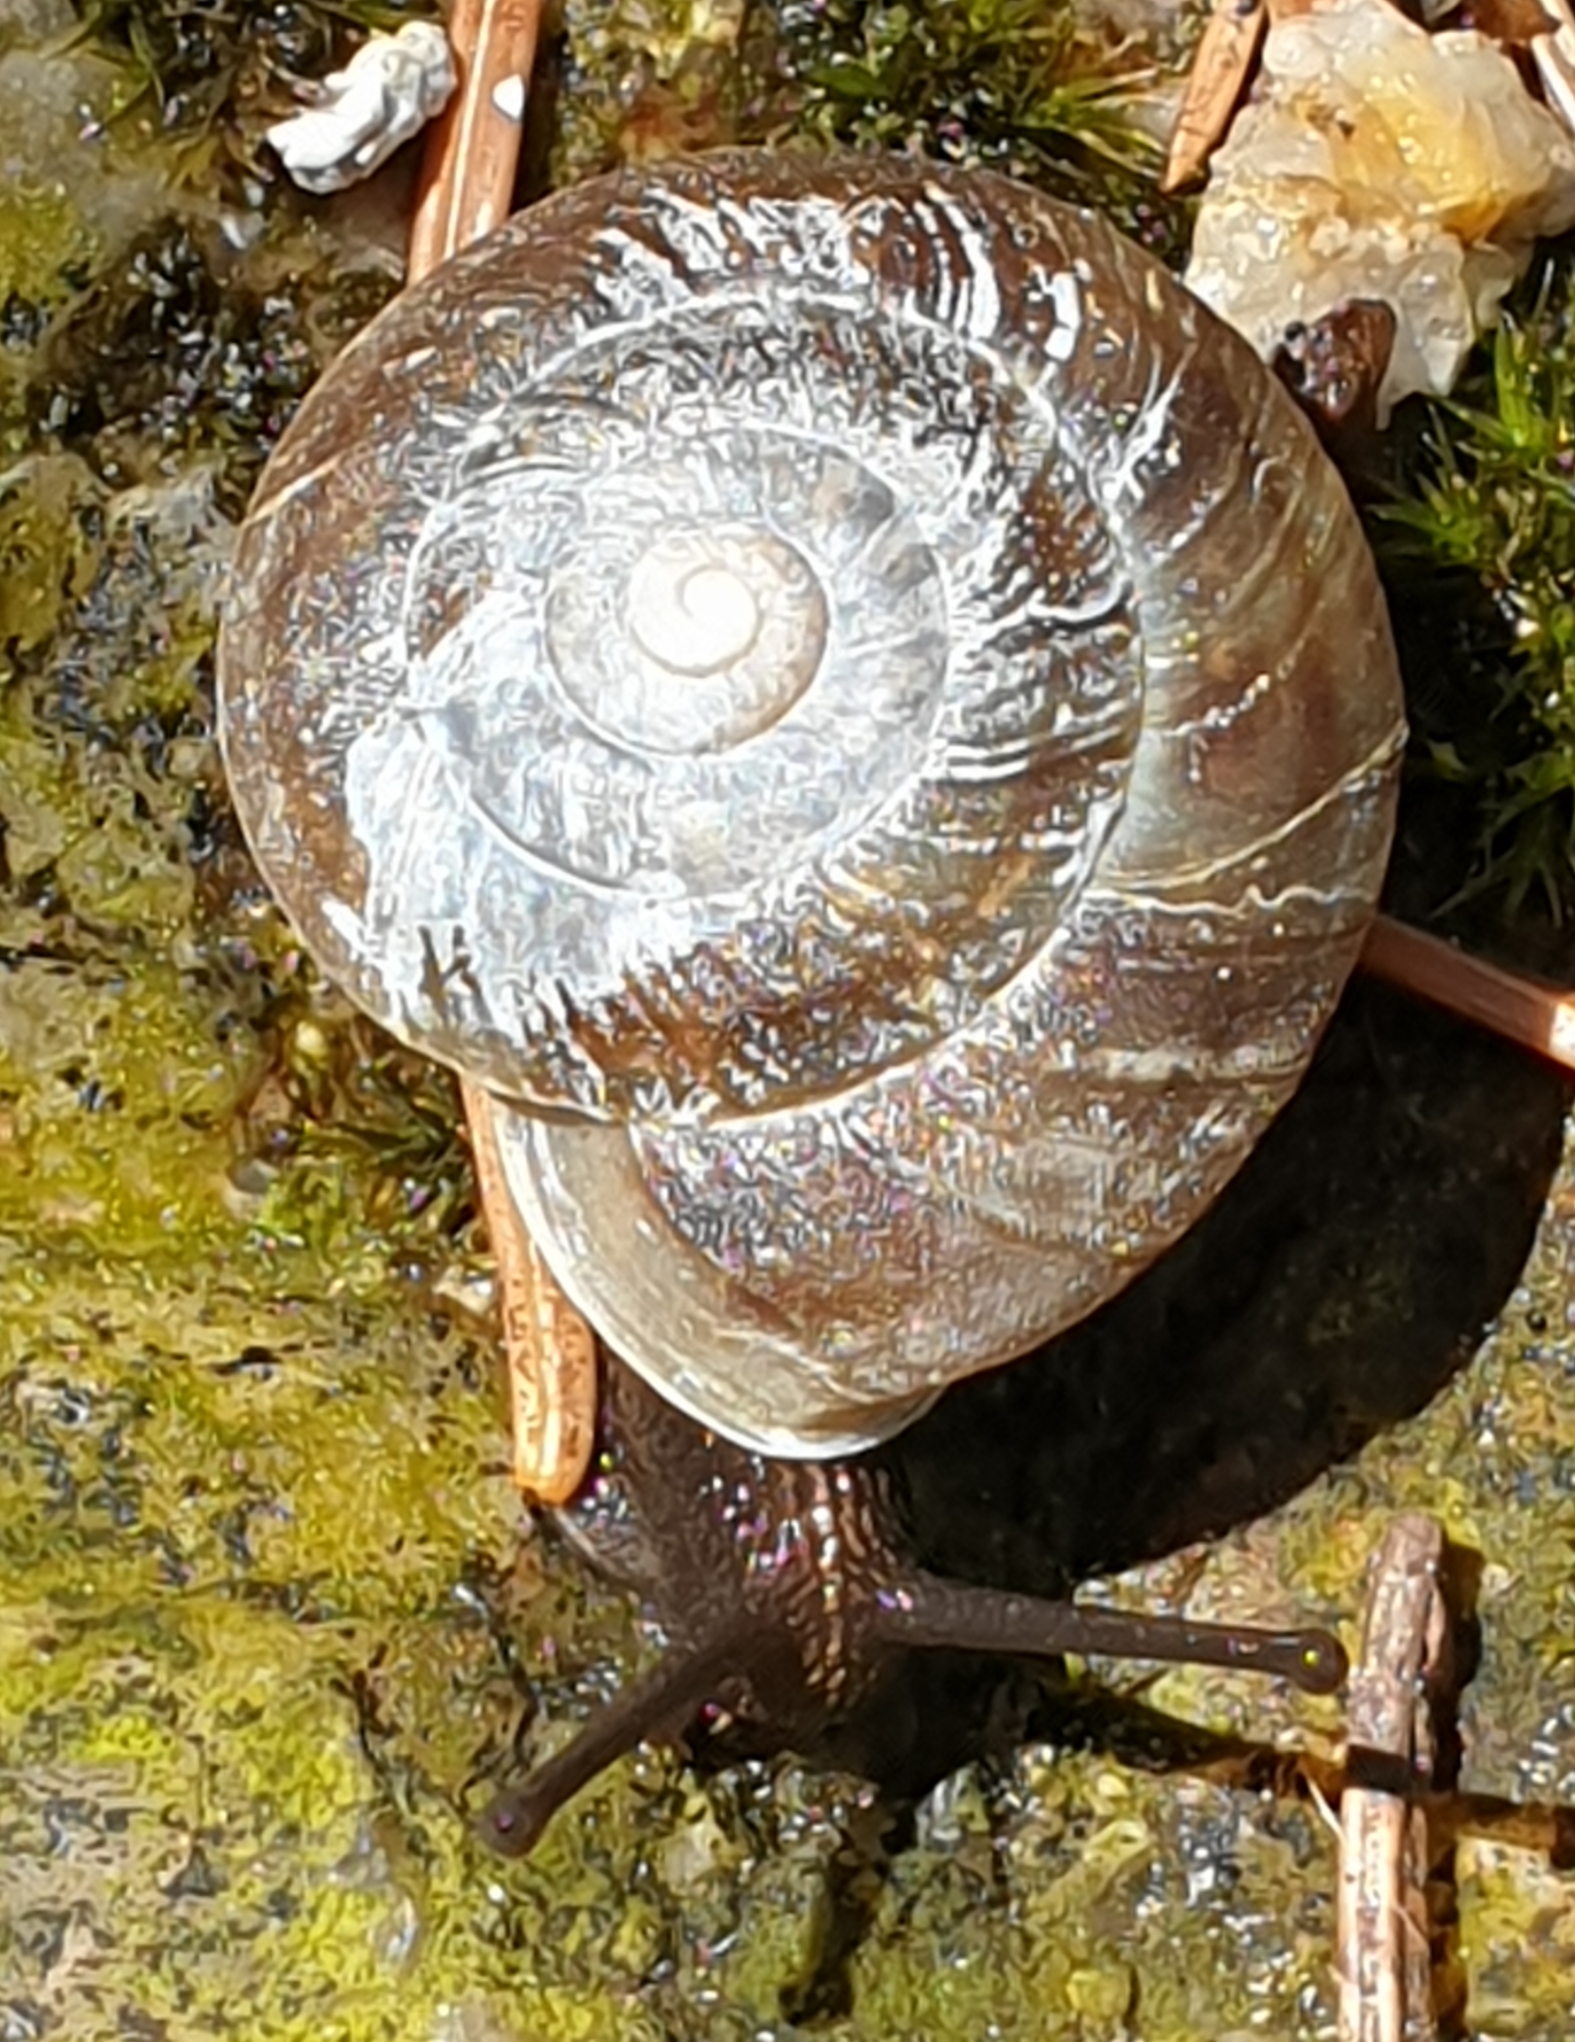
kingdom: Animalia
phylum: Mollusca
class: Gastropoda
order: Stylommatophora
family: Helicidae
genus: Helicigona
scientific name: Helicigona lapicida
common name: Lapidary snail
